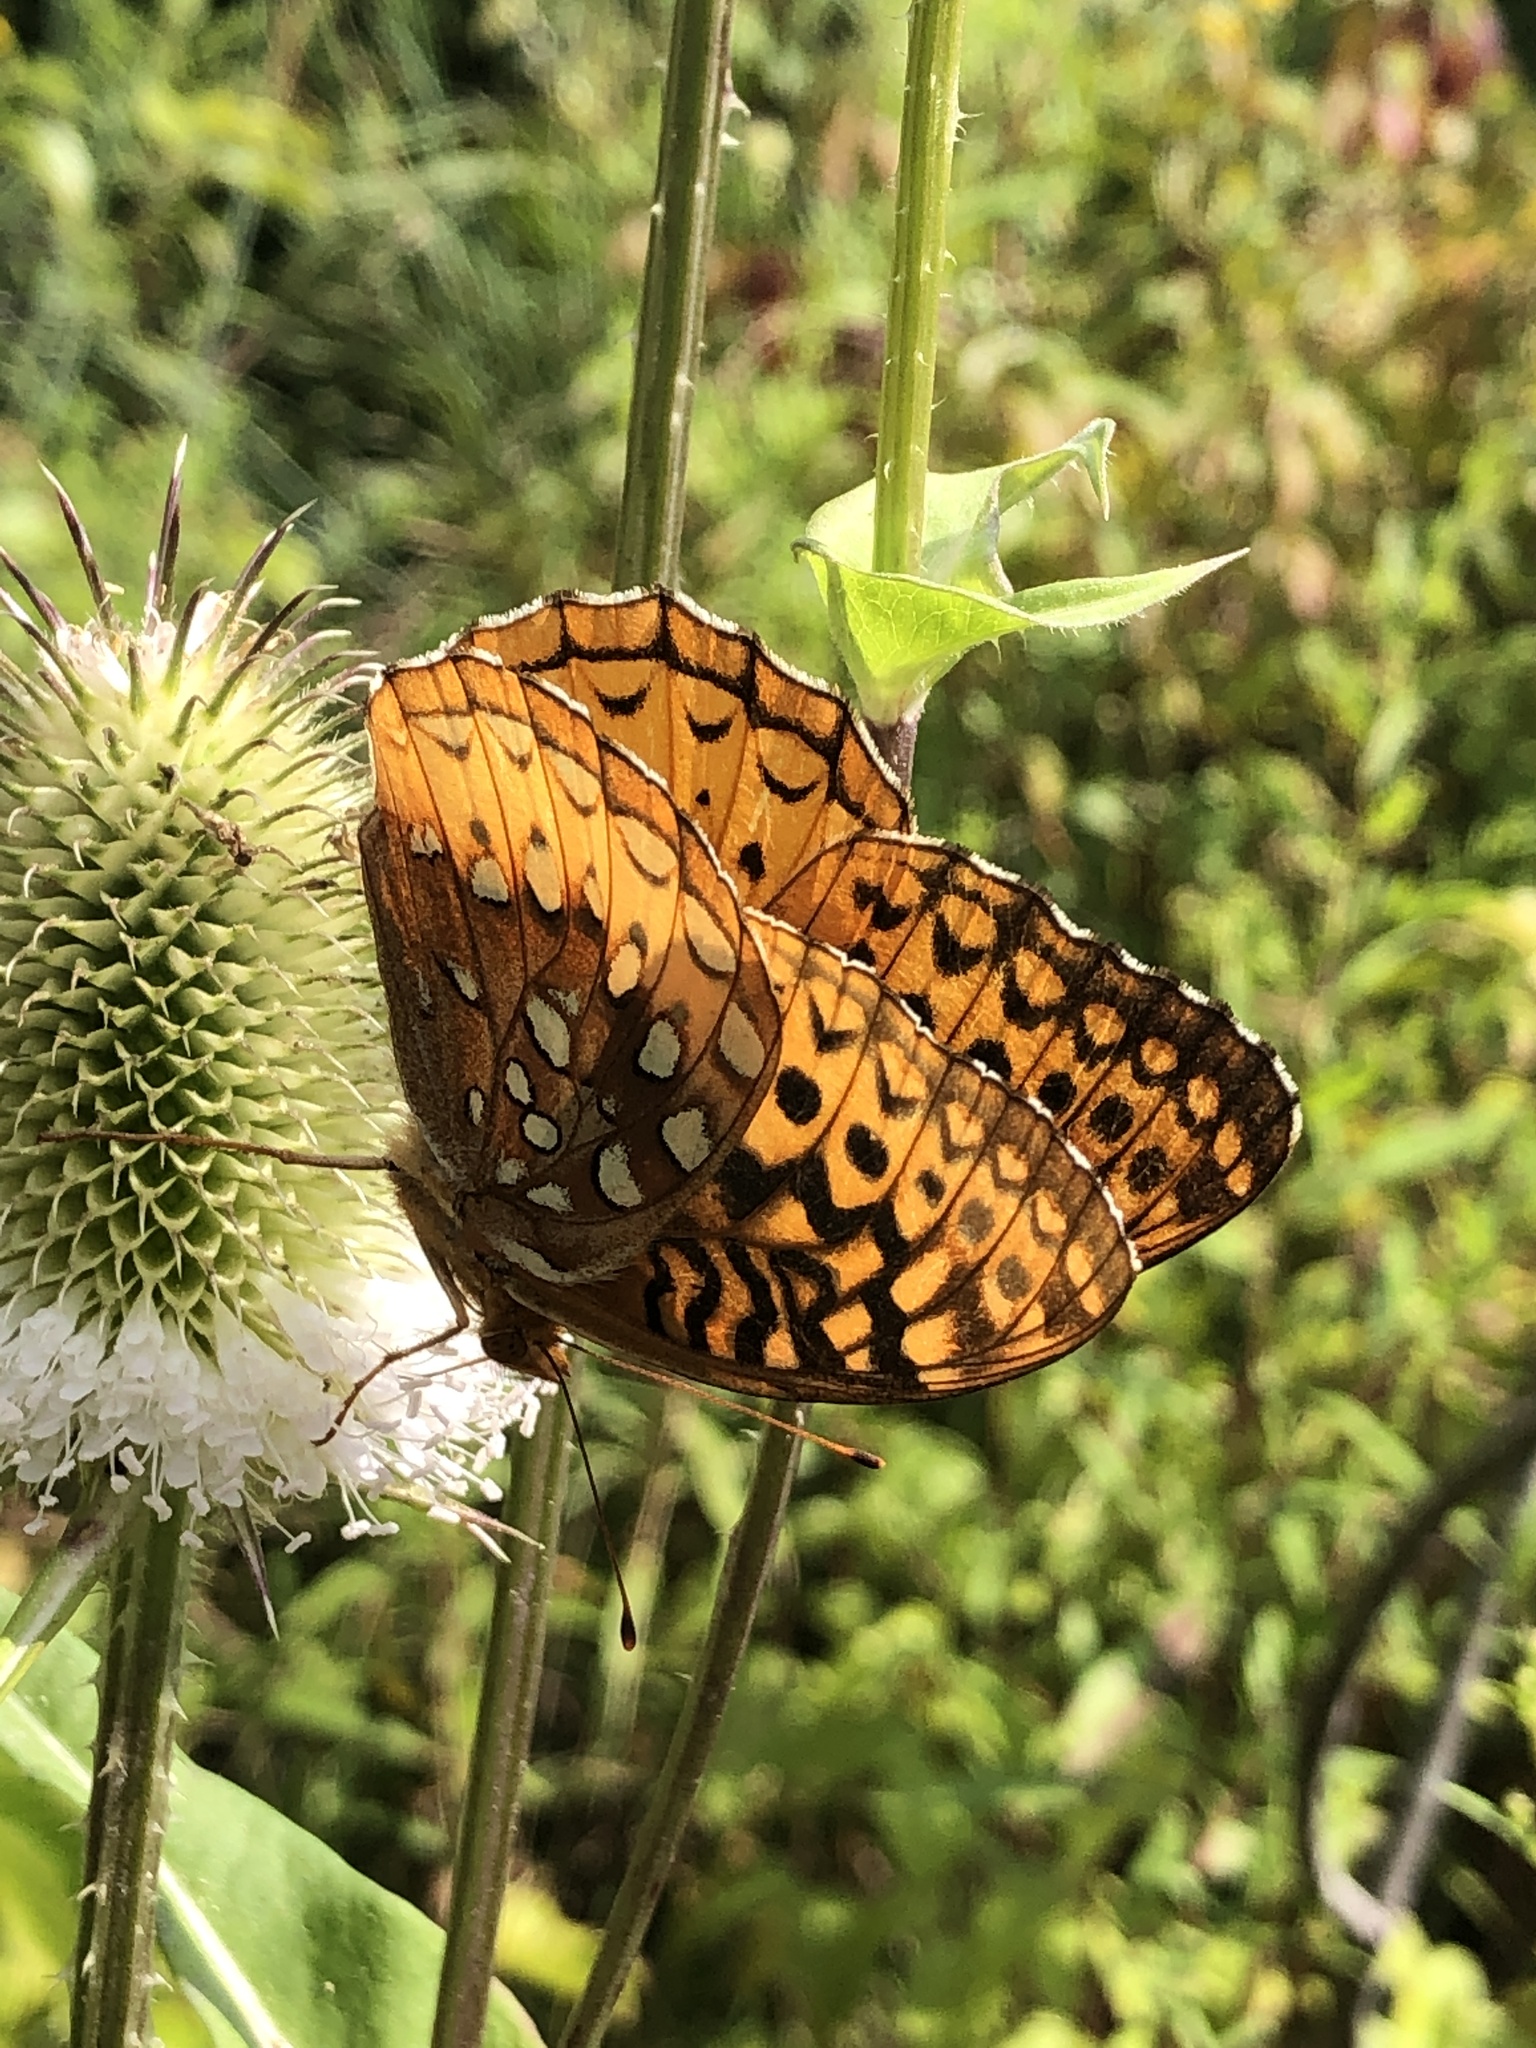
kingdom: Animalia
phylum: Arthropoda
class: Insecta
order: Lepidoptera
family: Nymphalidae
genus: Speyeria
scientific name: Speyeria cybele
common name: Great spangled fritillary
